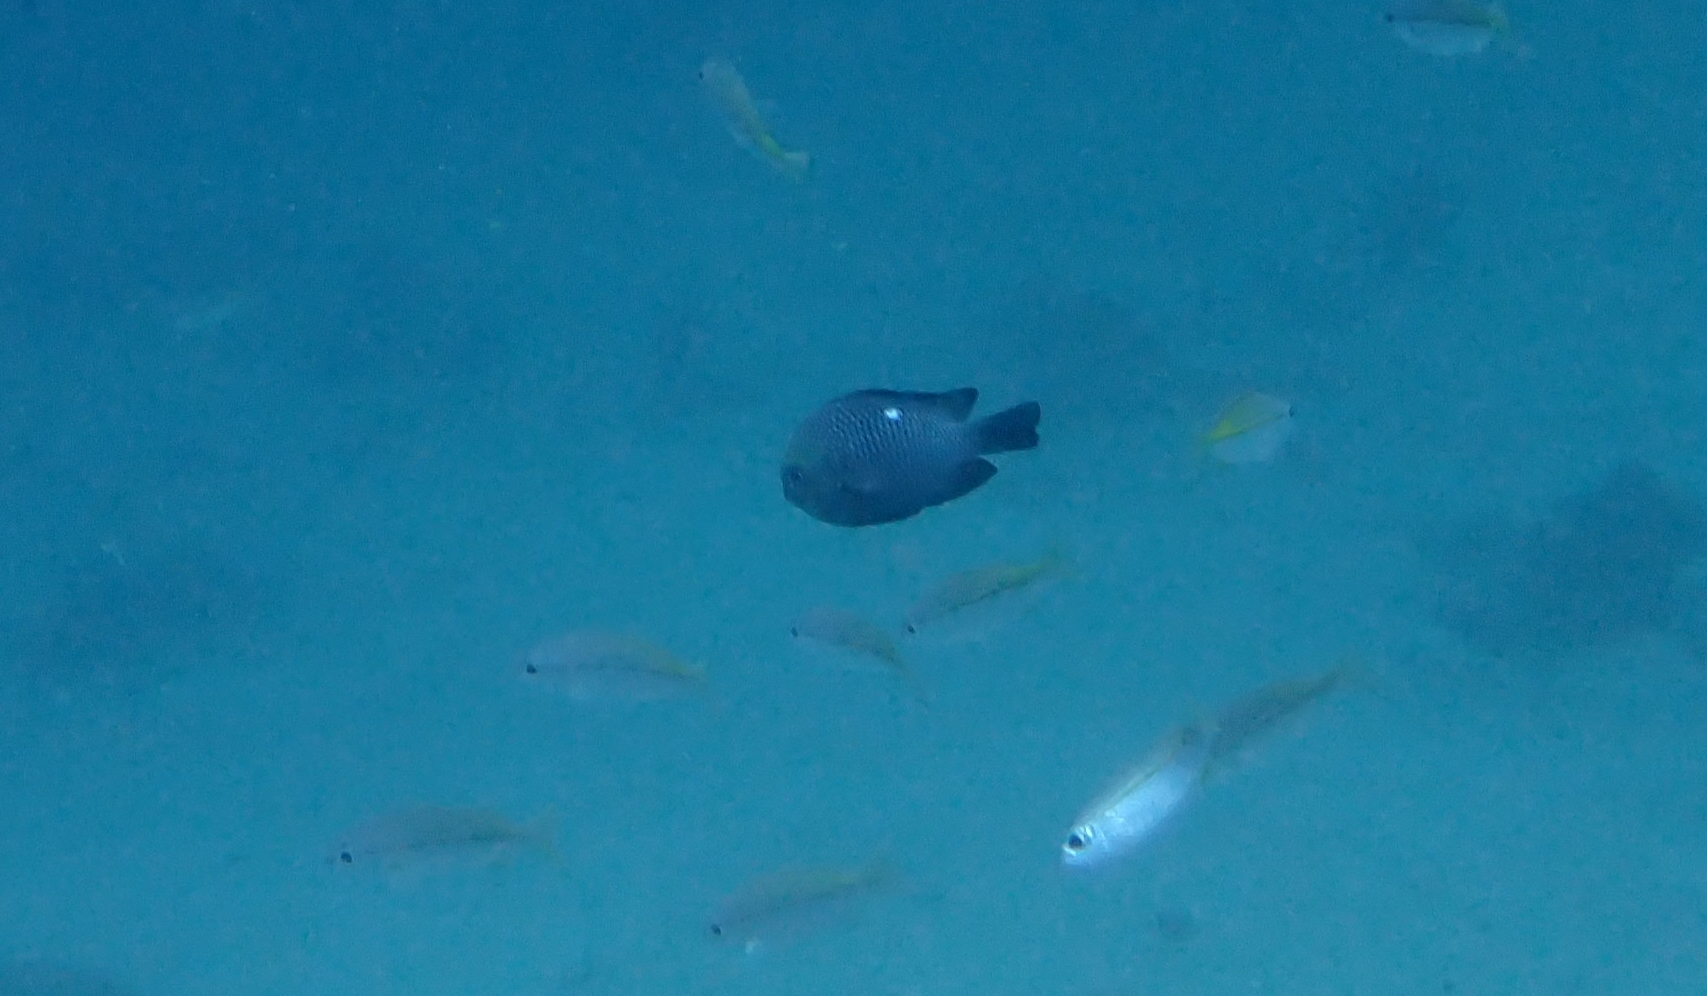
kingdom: Animalia
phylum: Chordata
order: Perciformes
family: Pomacentridae
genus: Dascyllus
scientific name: Dascyllus trimaculatus
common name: Threespot dascyllus
